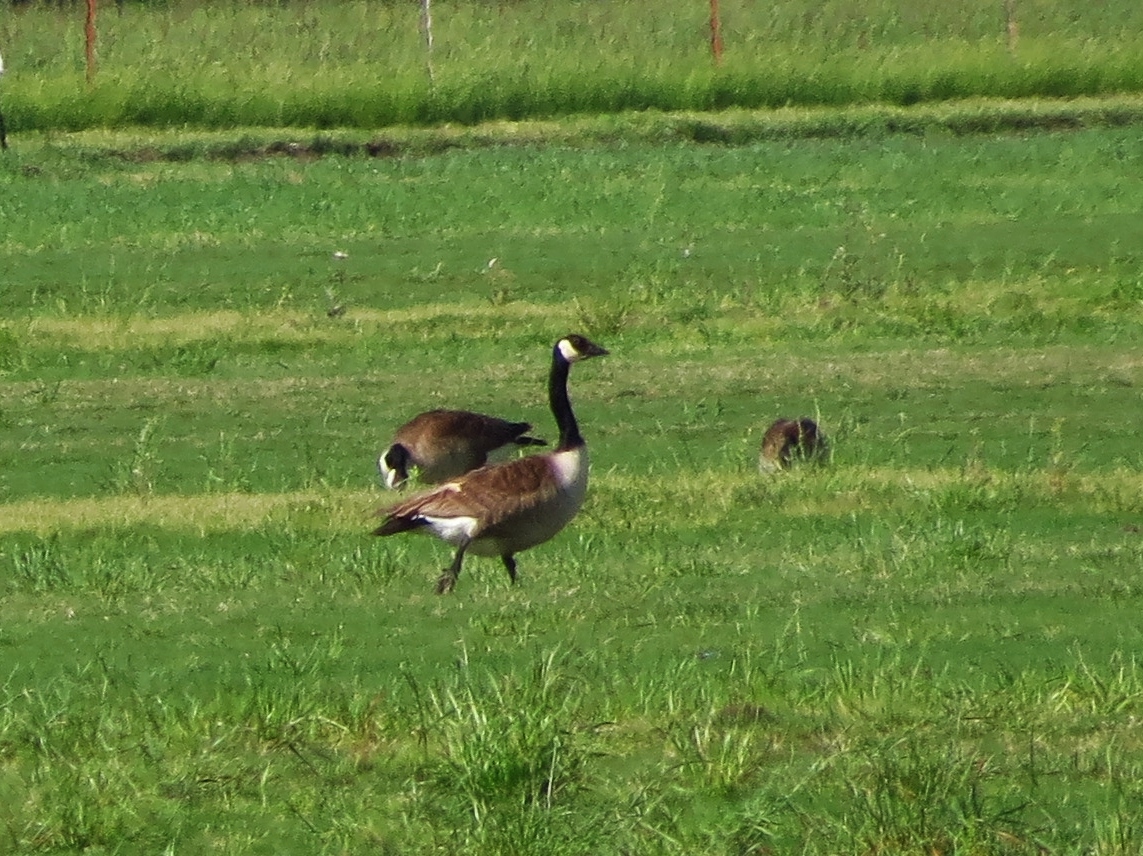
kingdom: Animalia
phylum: Chordata
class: Aves
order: Anseriformes
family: Anatidae
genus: Branta
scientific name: Branta canadensis
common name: Canada goose
